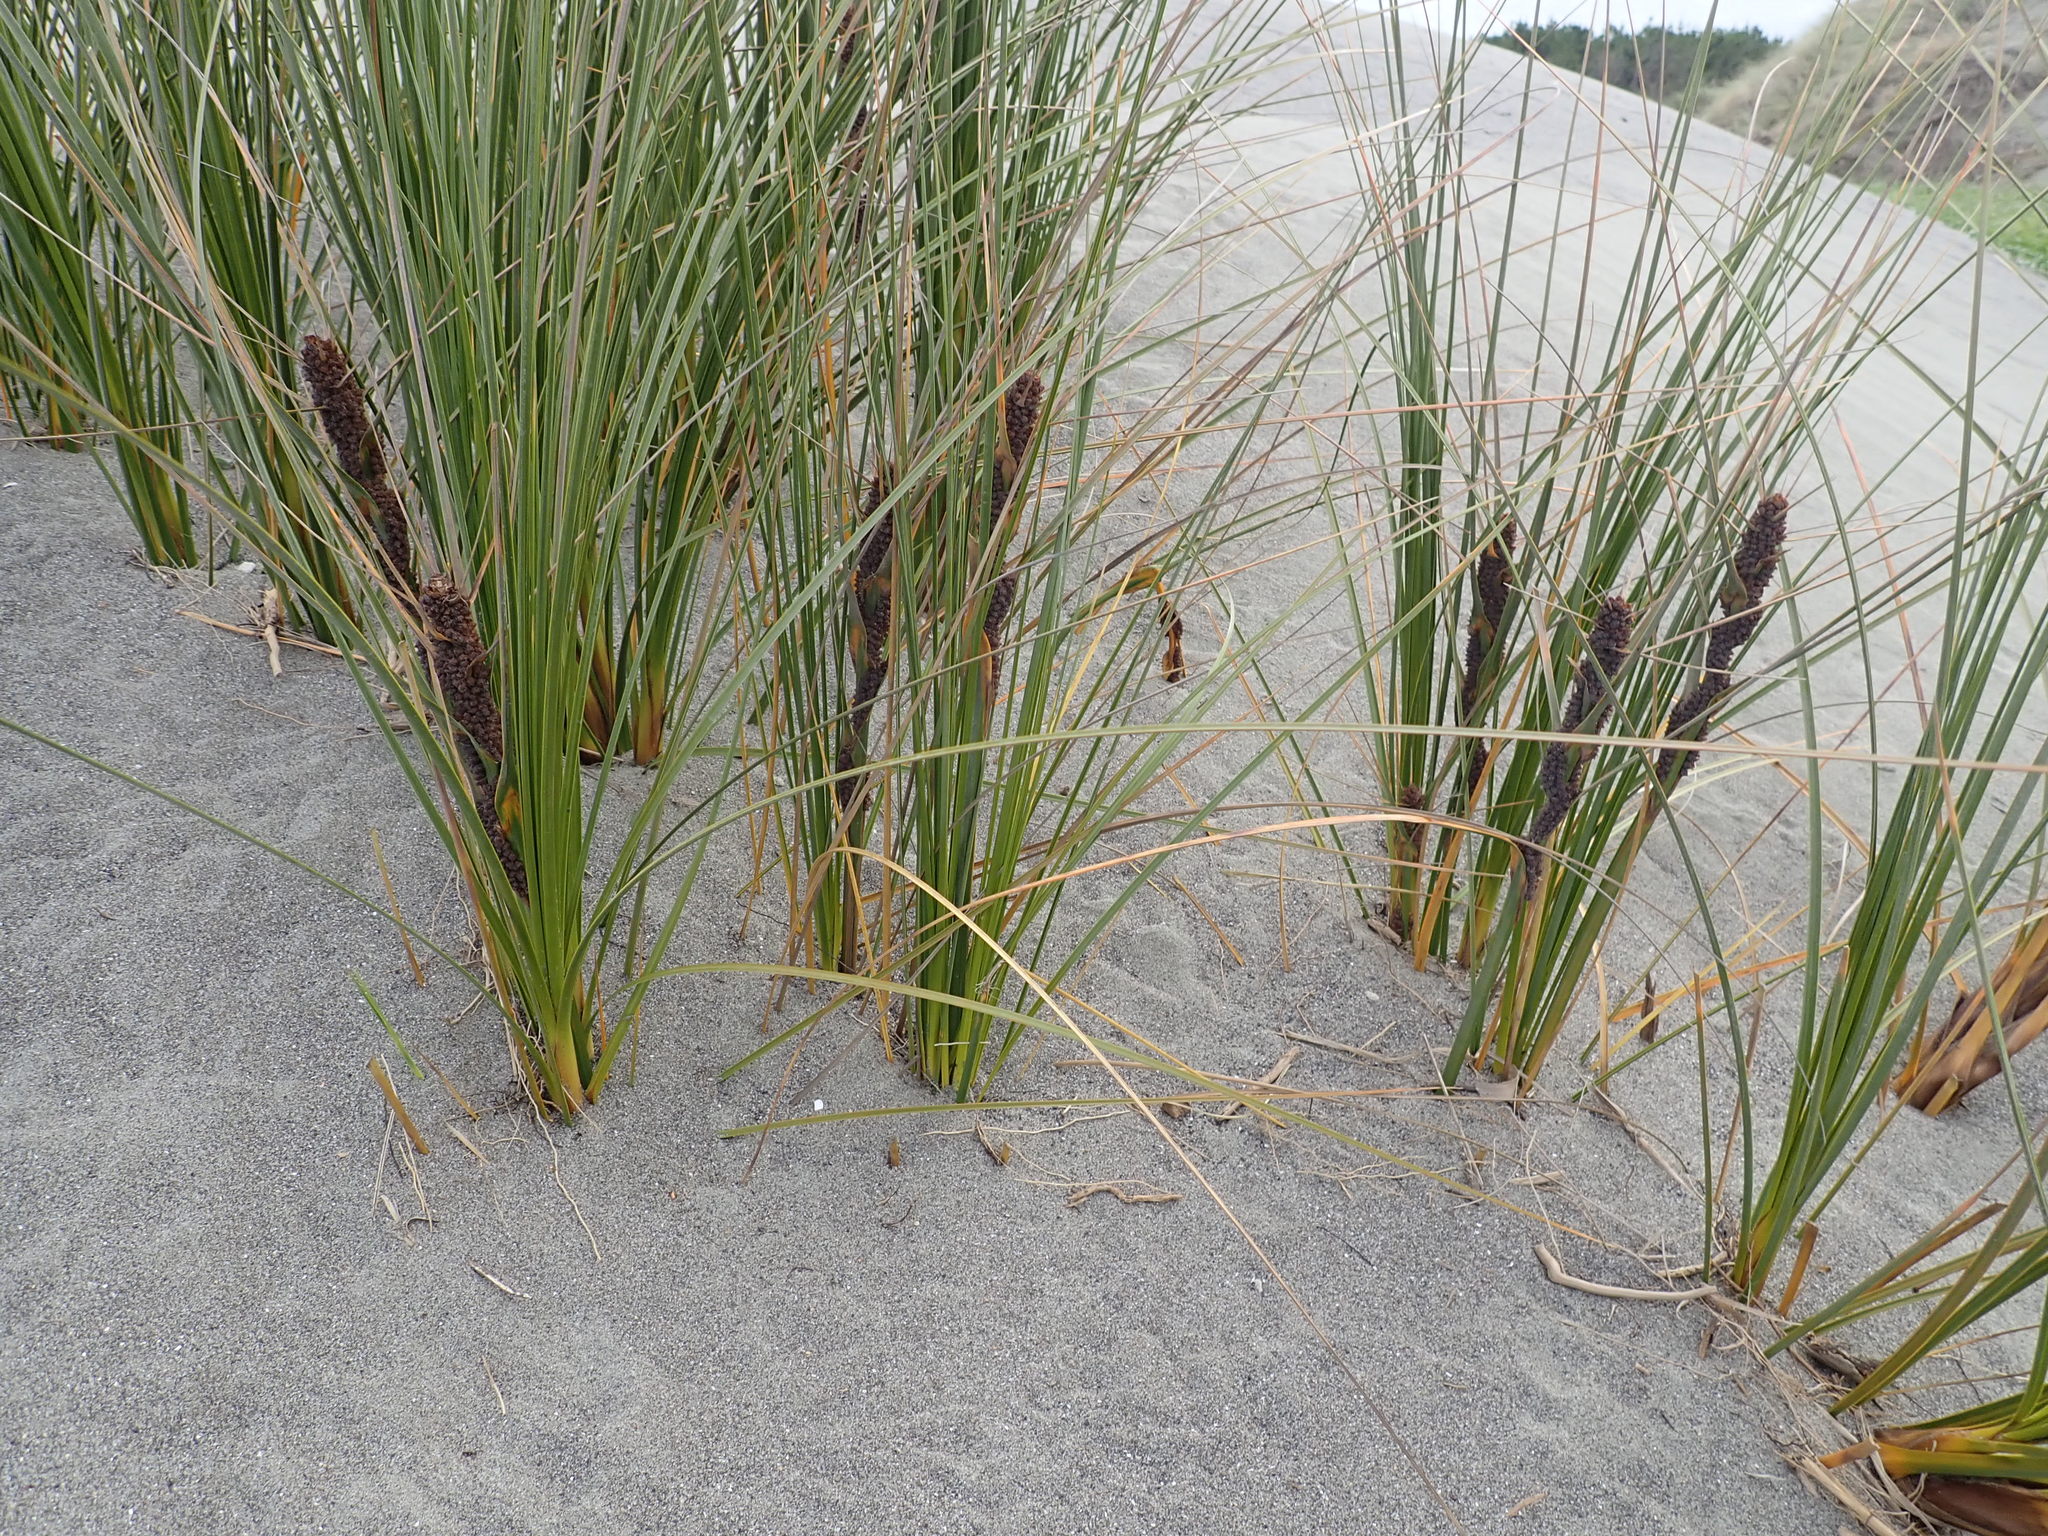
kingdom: Plantae
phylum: Tracheophyta
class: Liliopsida
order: Poales
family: Cyperaceae
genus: Ficinia
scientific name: Ficinia spiralis
